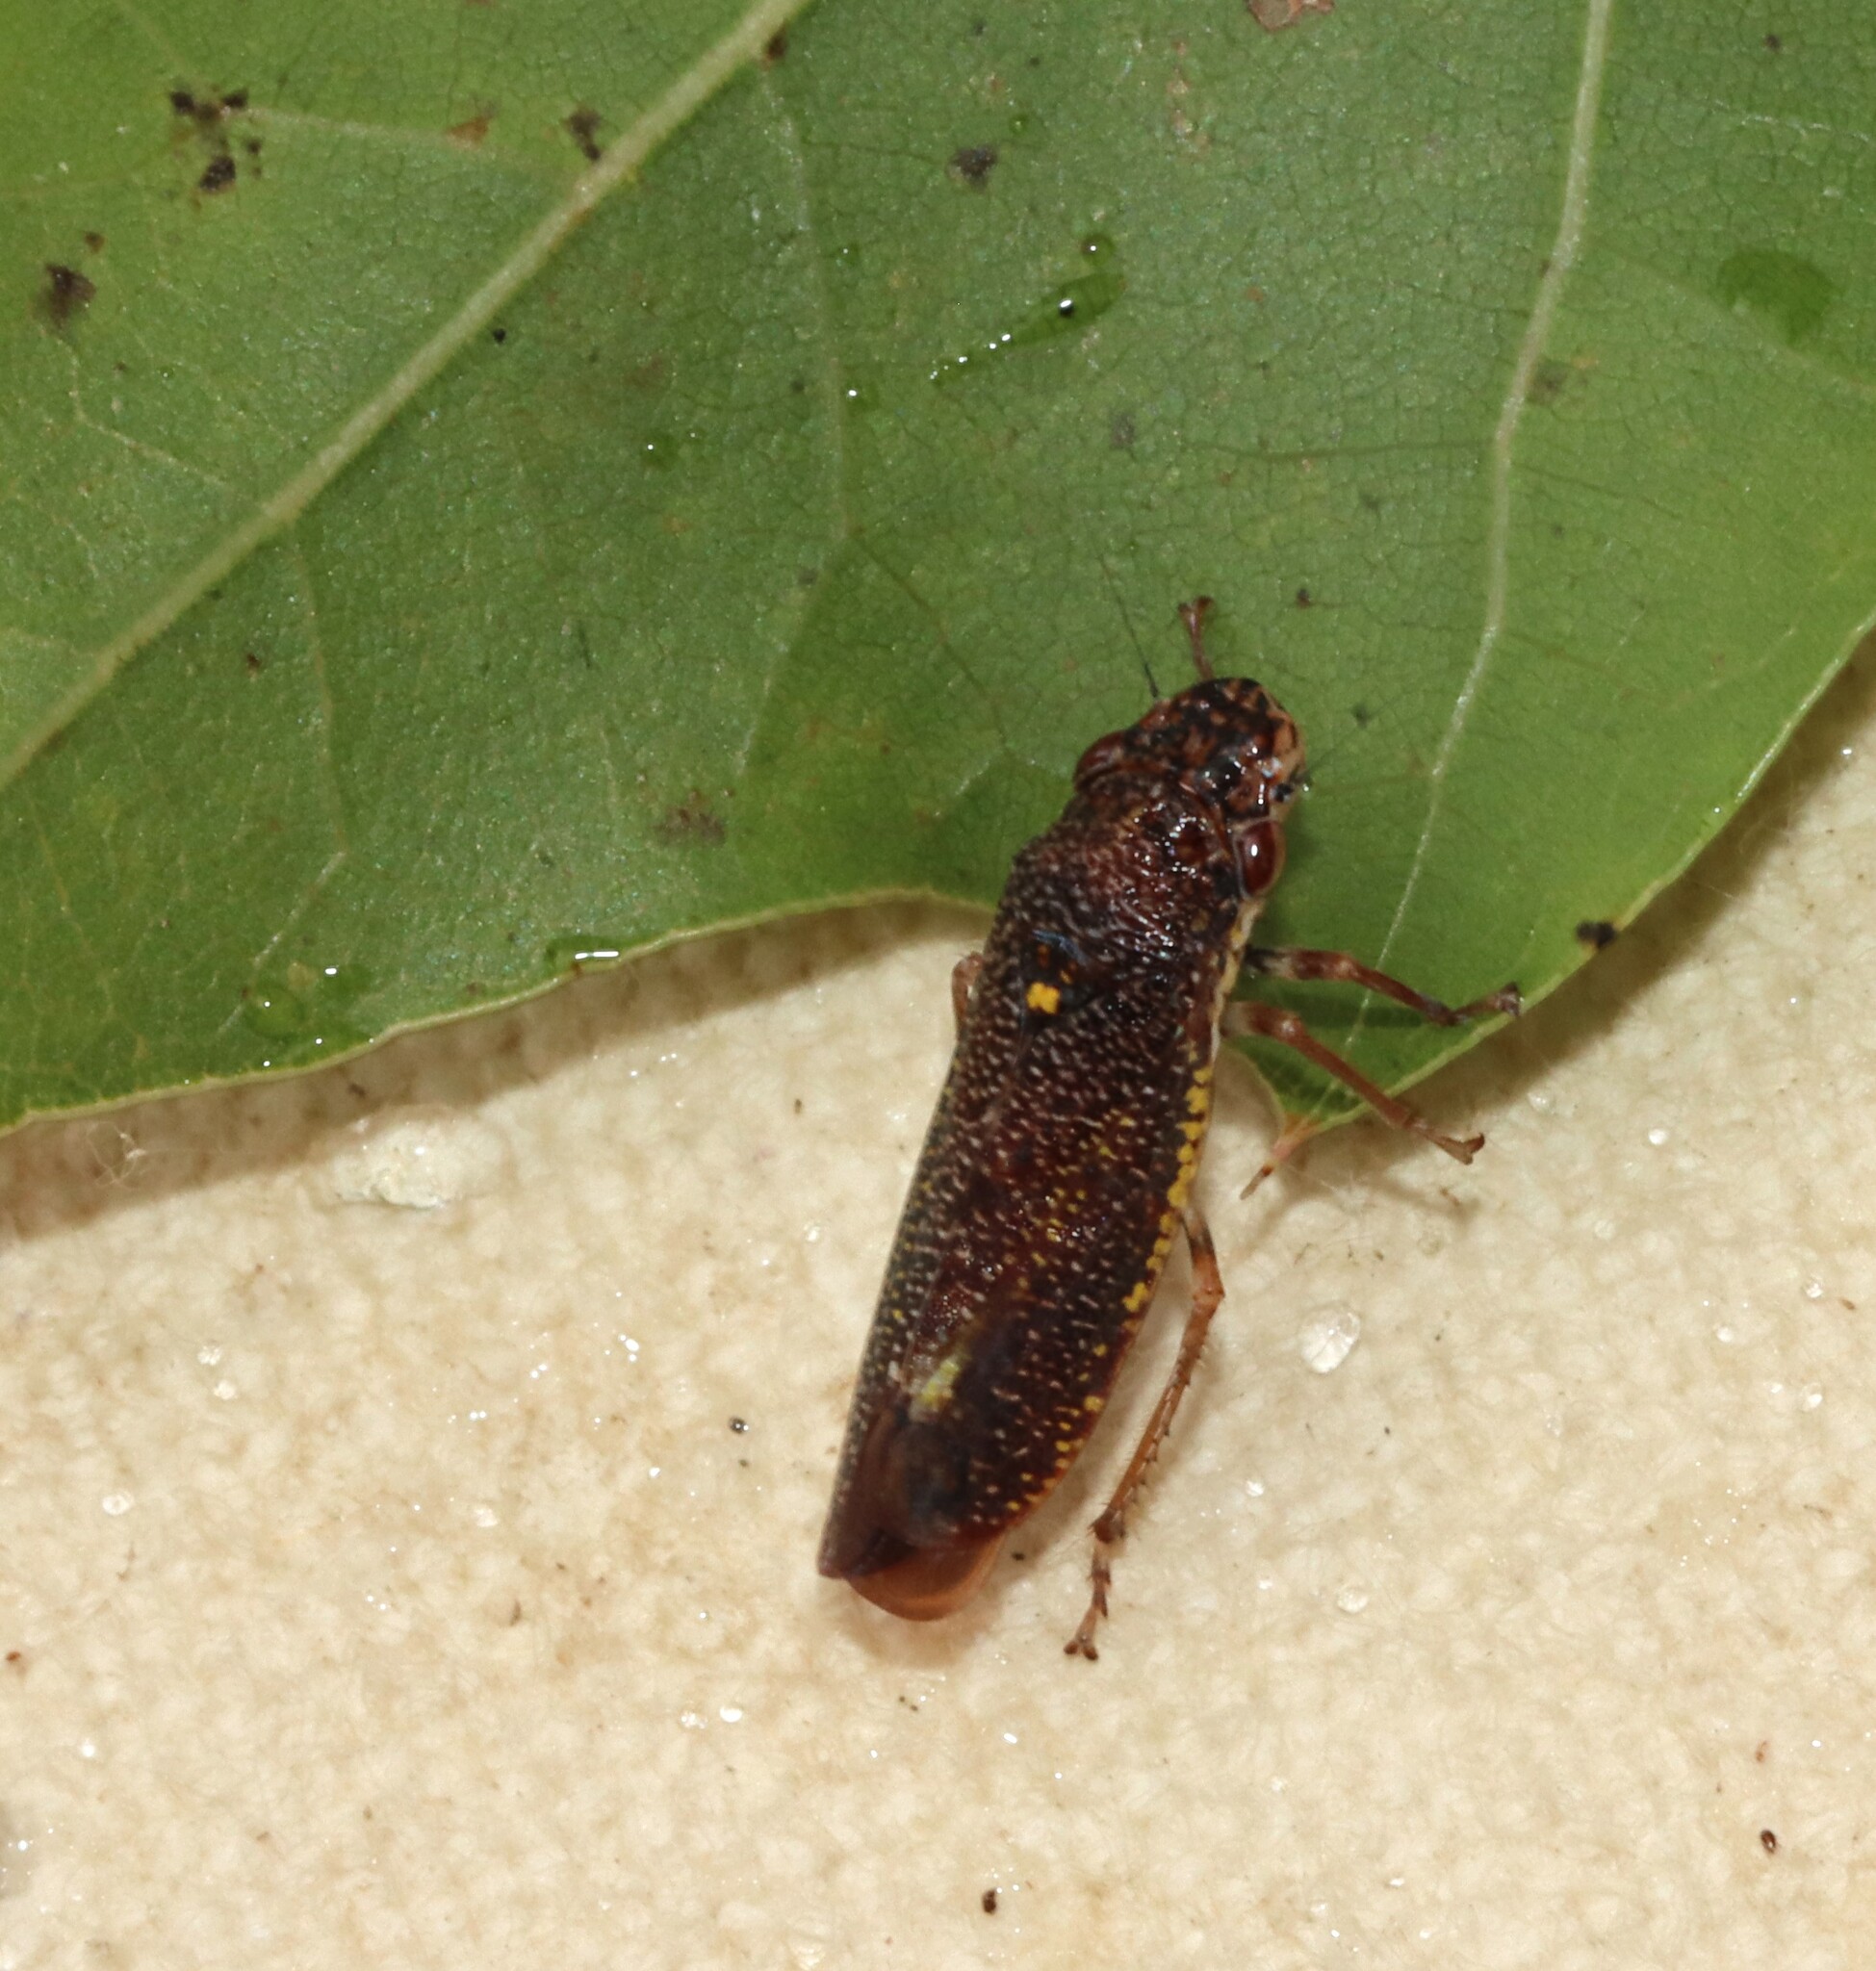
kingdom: Animalia
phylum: Arthropoda
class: Insecta
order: Hemiptera
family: Cicadellidae
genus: Paraulacizes
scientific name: Paraulacizes irrorata
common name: Speckled sharpshooter
